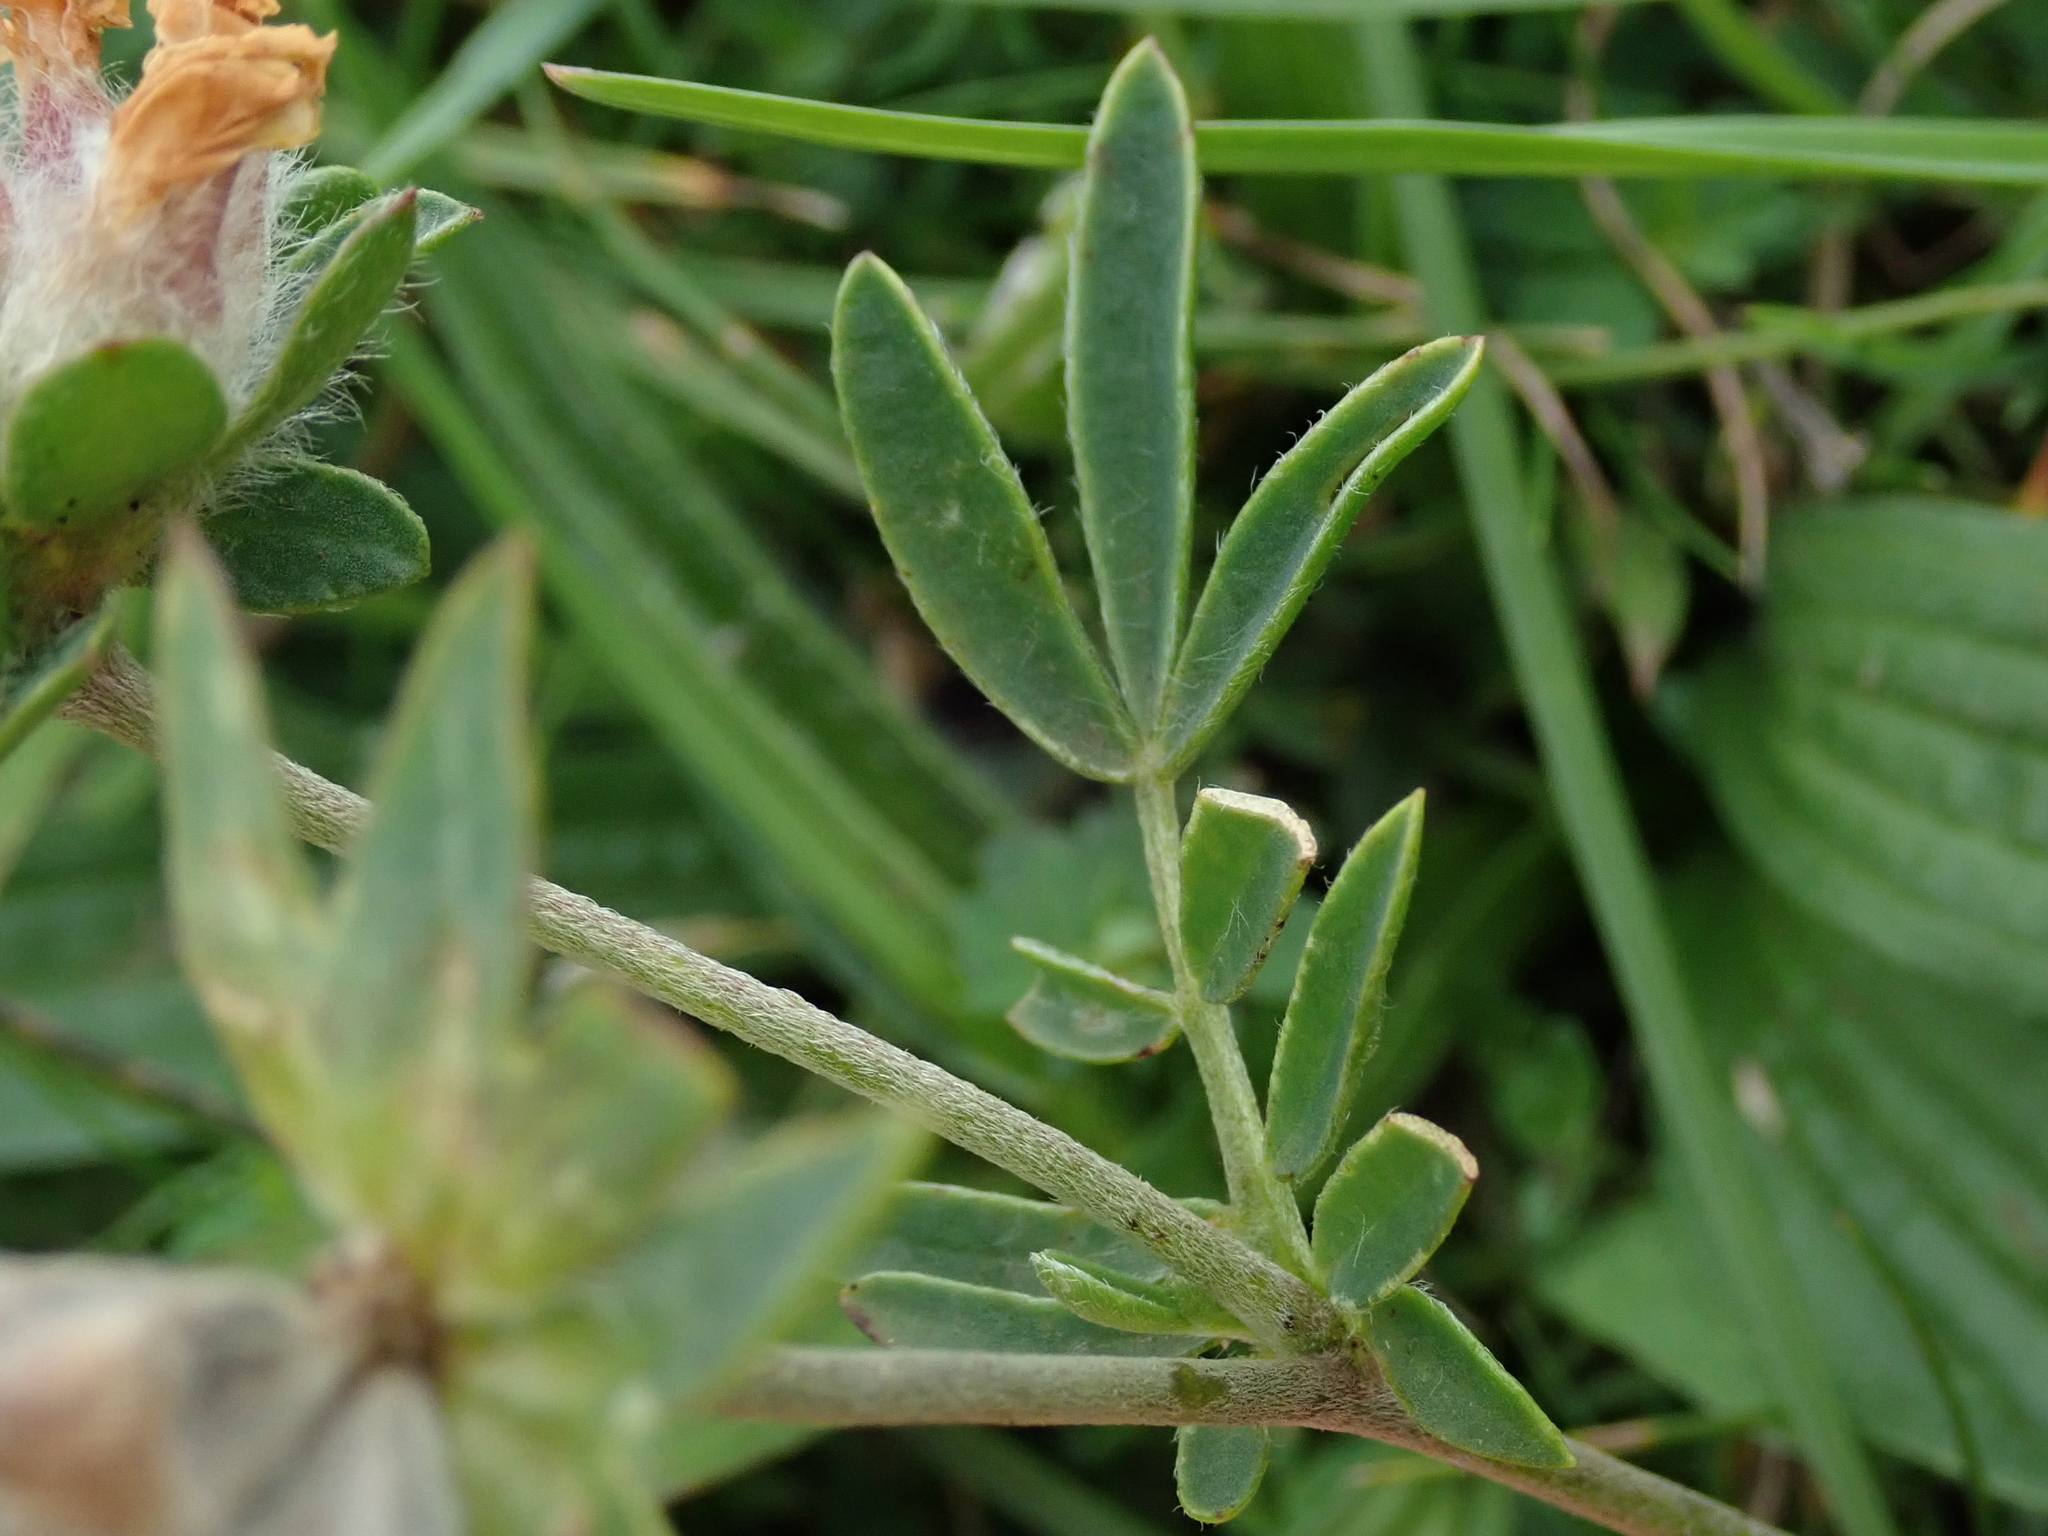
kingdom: Plantae
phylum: Tracheophyta
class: Magnoliopsida
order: Fabales
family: Fabaceae
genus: Anthyllis
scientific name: Anthyllis vulneraria
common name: Kidney vetch
